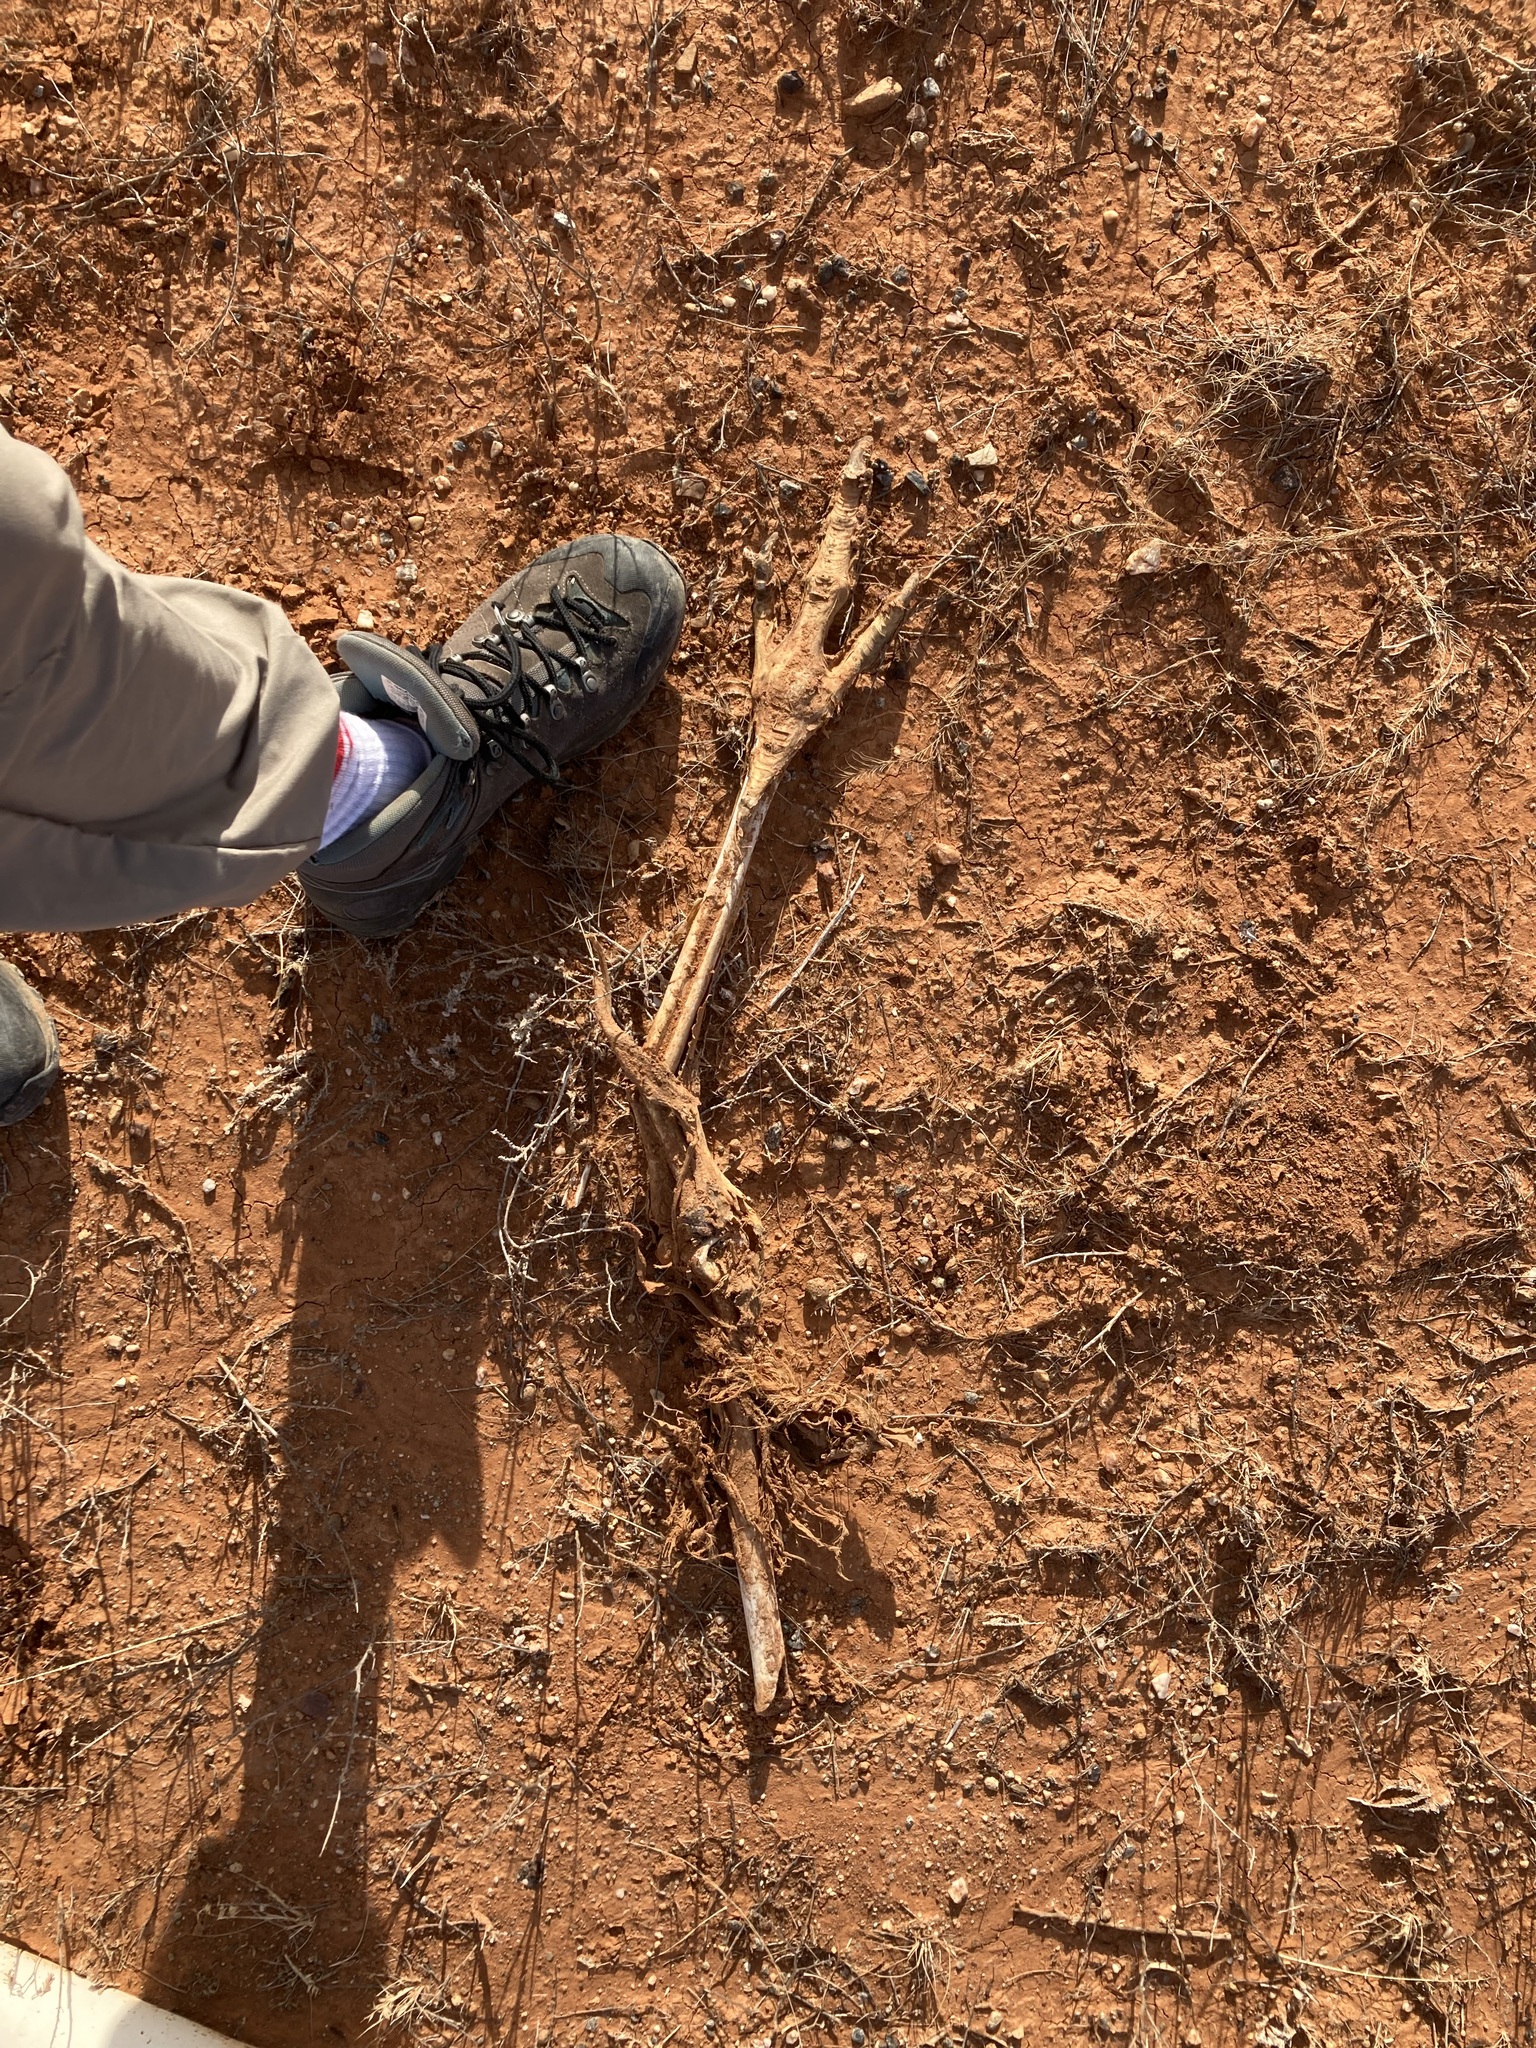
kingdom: Animalia
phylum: Chordata
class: Aves
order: Casuariiformes
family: Dromaiidae
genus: Dromaius
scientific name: Dromaius novaehollandiae
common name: Emu
